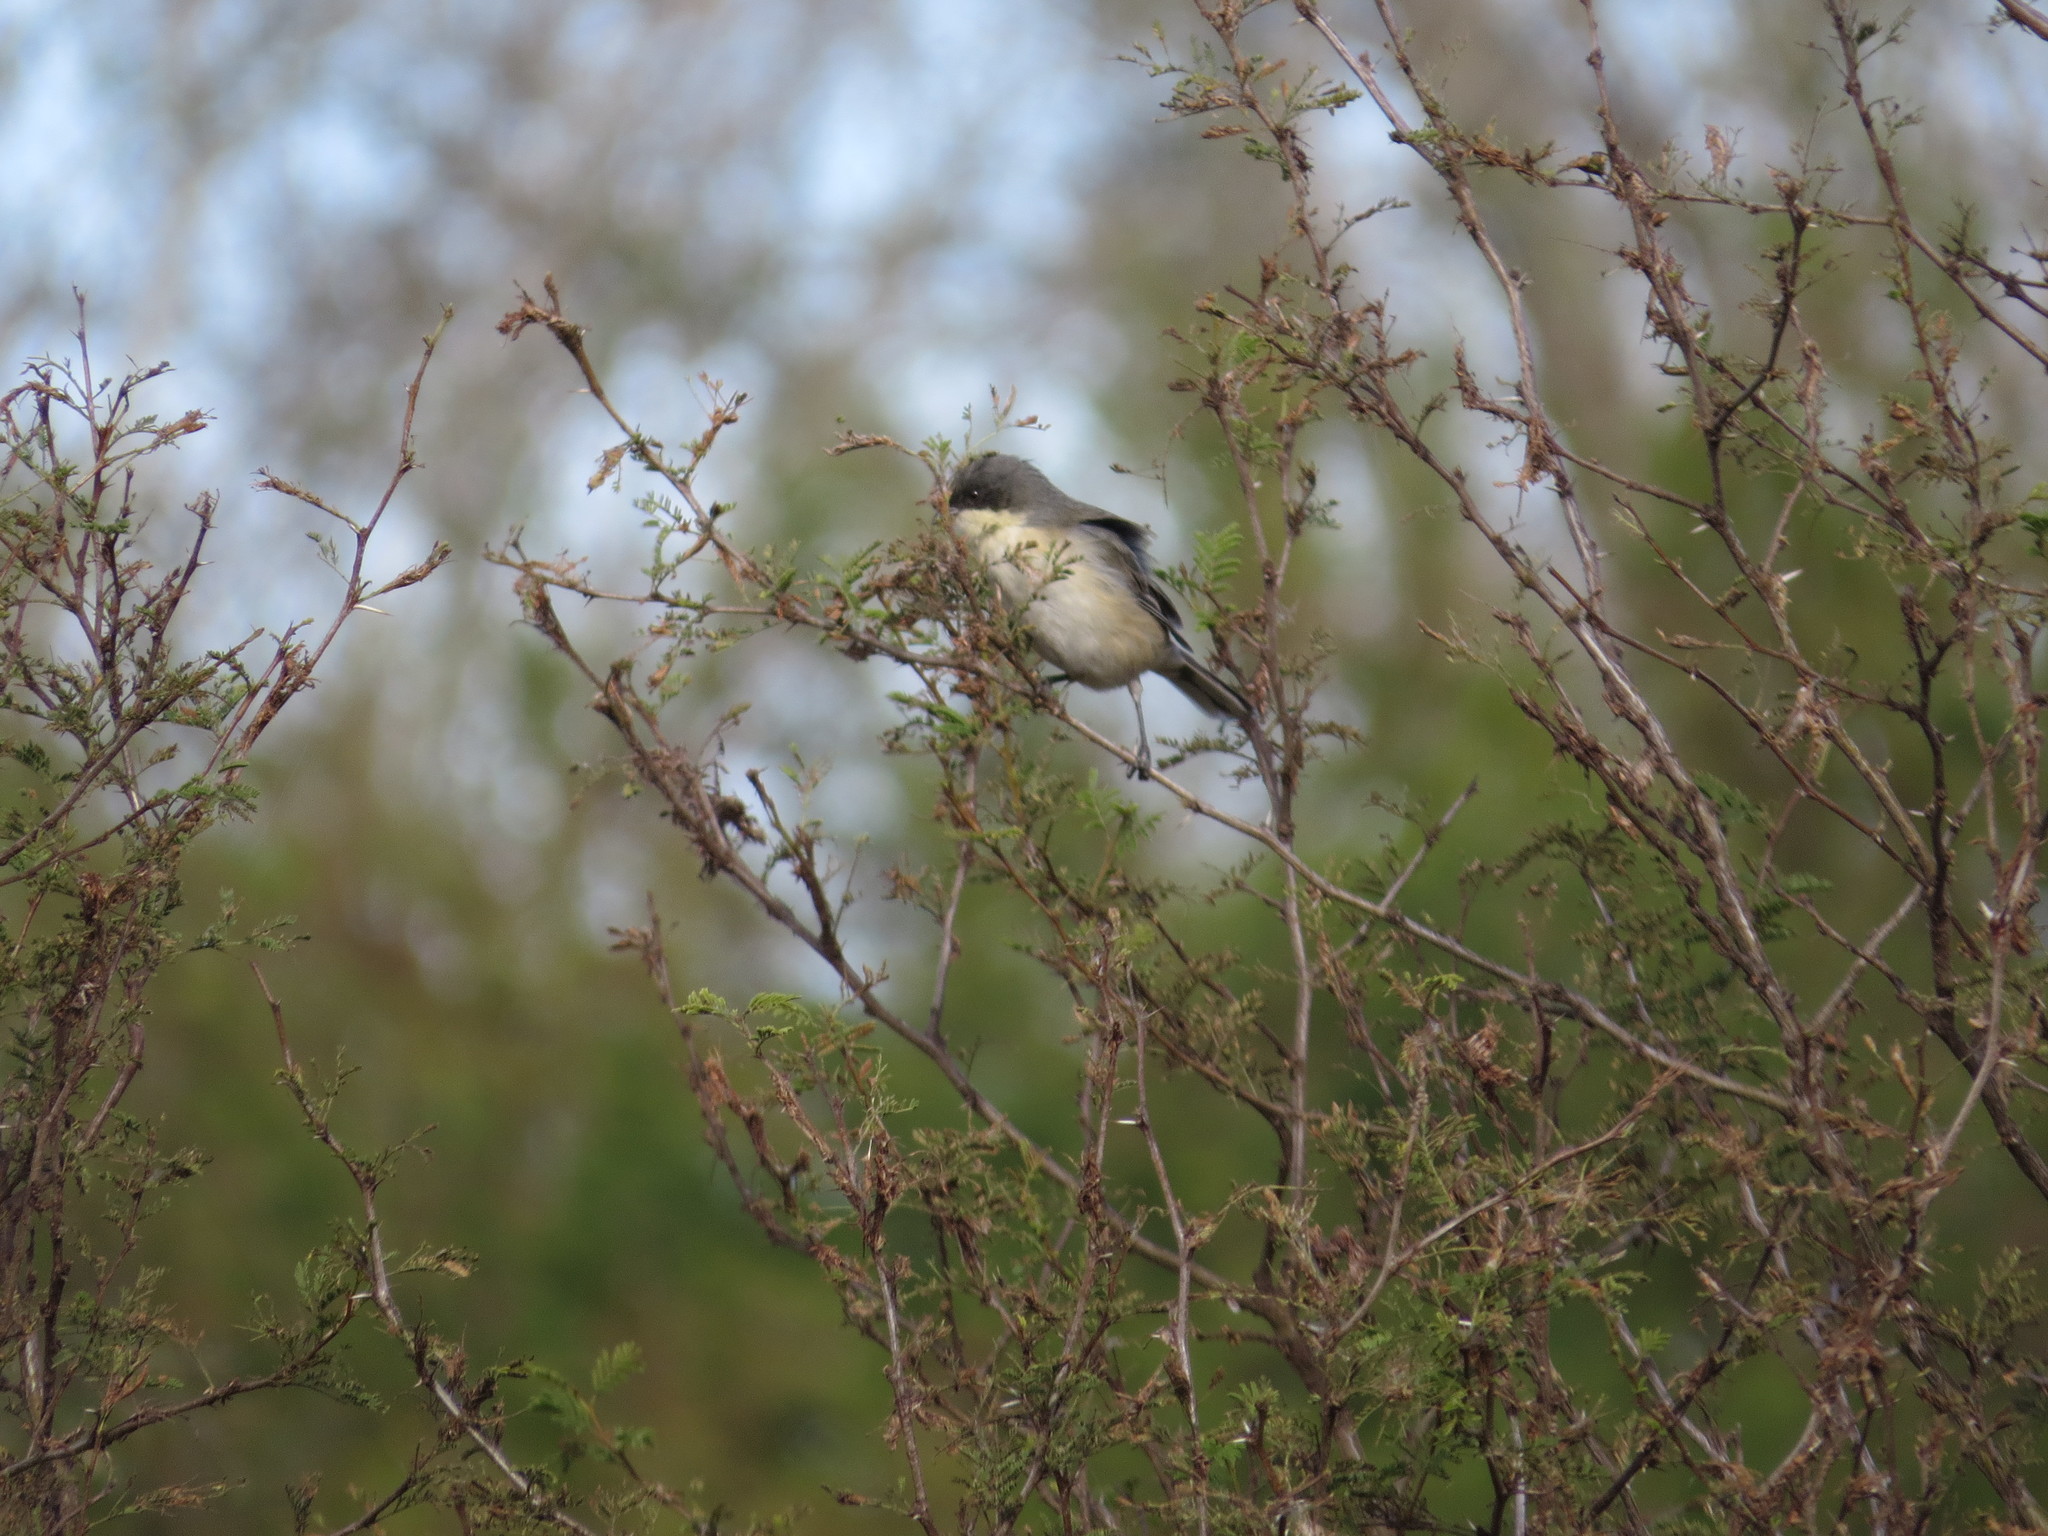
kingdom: Animalia
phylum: Chordata
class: Aves
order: Passeriformes
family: Thraupidae
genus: Microspingus
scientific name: Microspingus melanoleucus
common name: Black-capped warbling-finch
